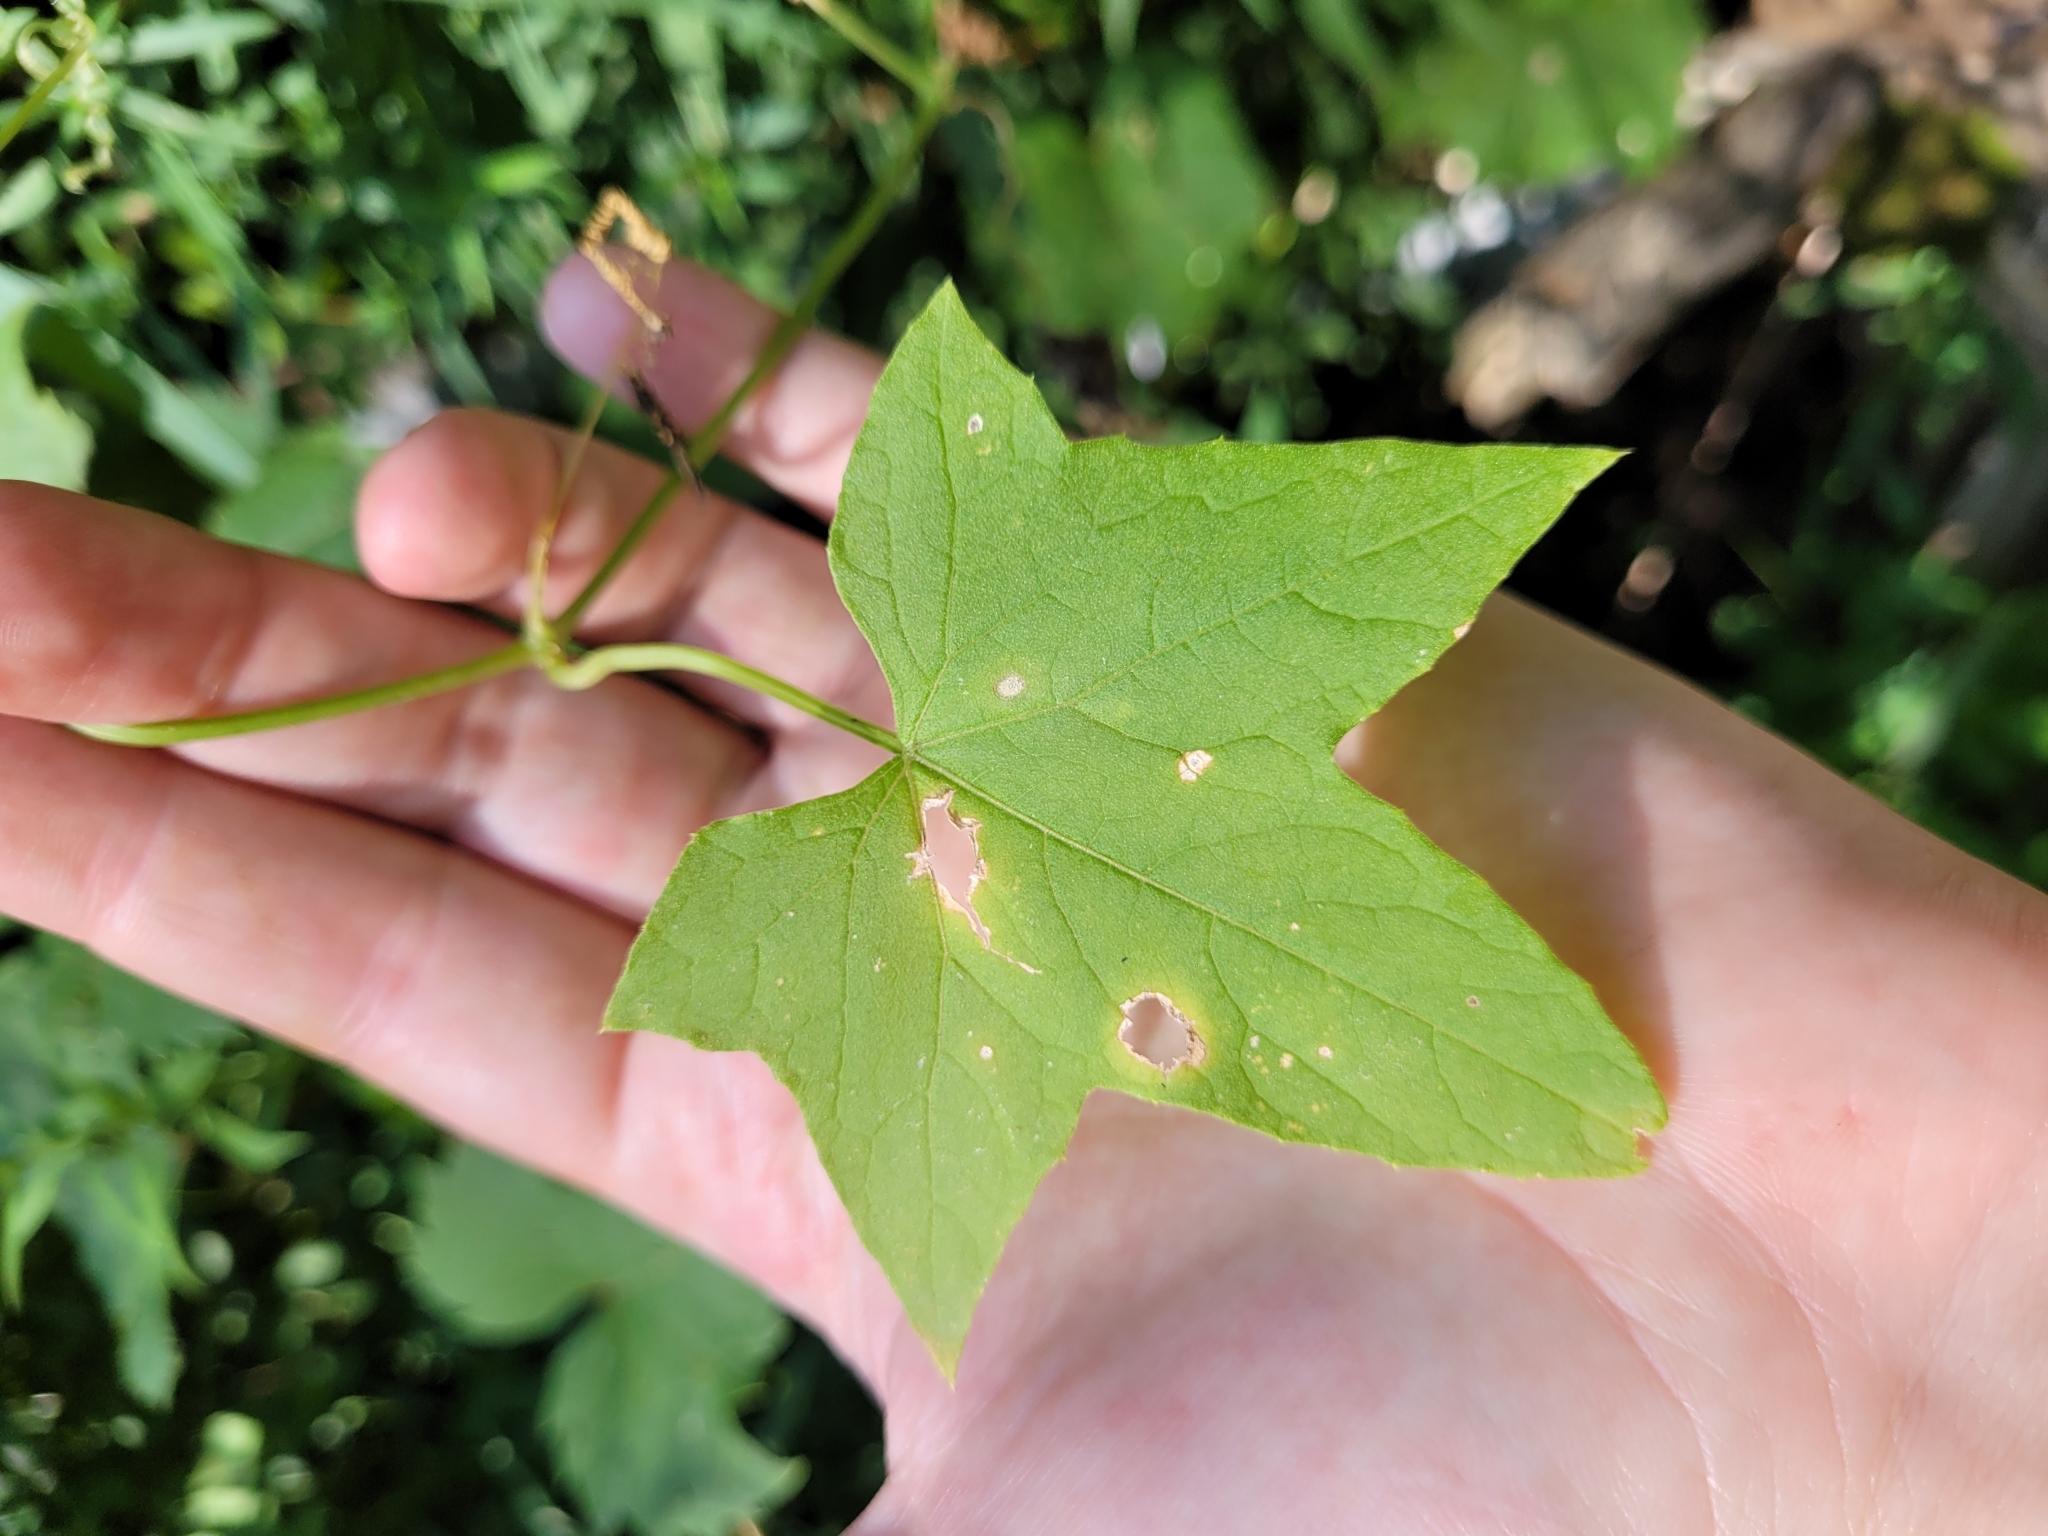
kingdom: Plantae
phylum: Tracheophyta
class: Magnoliopsida
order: Cucurbitales
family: Cucurbitaceae
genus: Echinocystis
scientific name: Echinocystis lobata
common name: Wild cucumber
